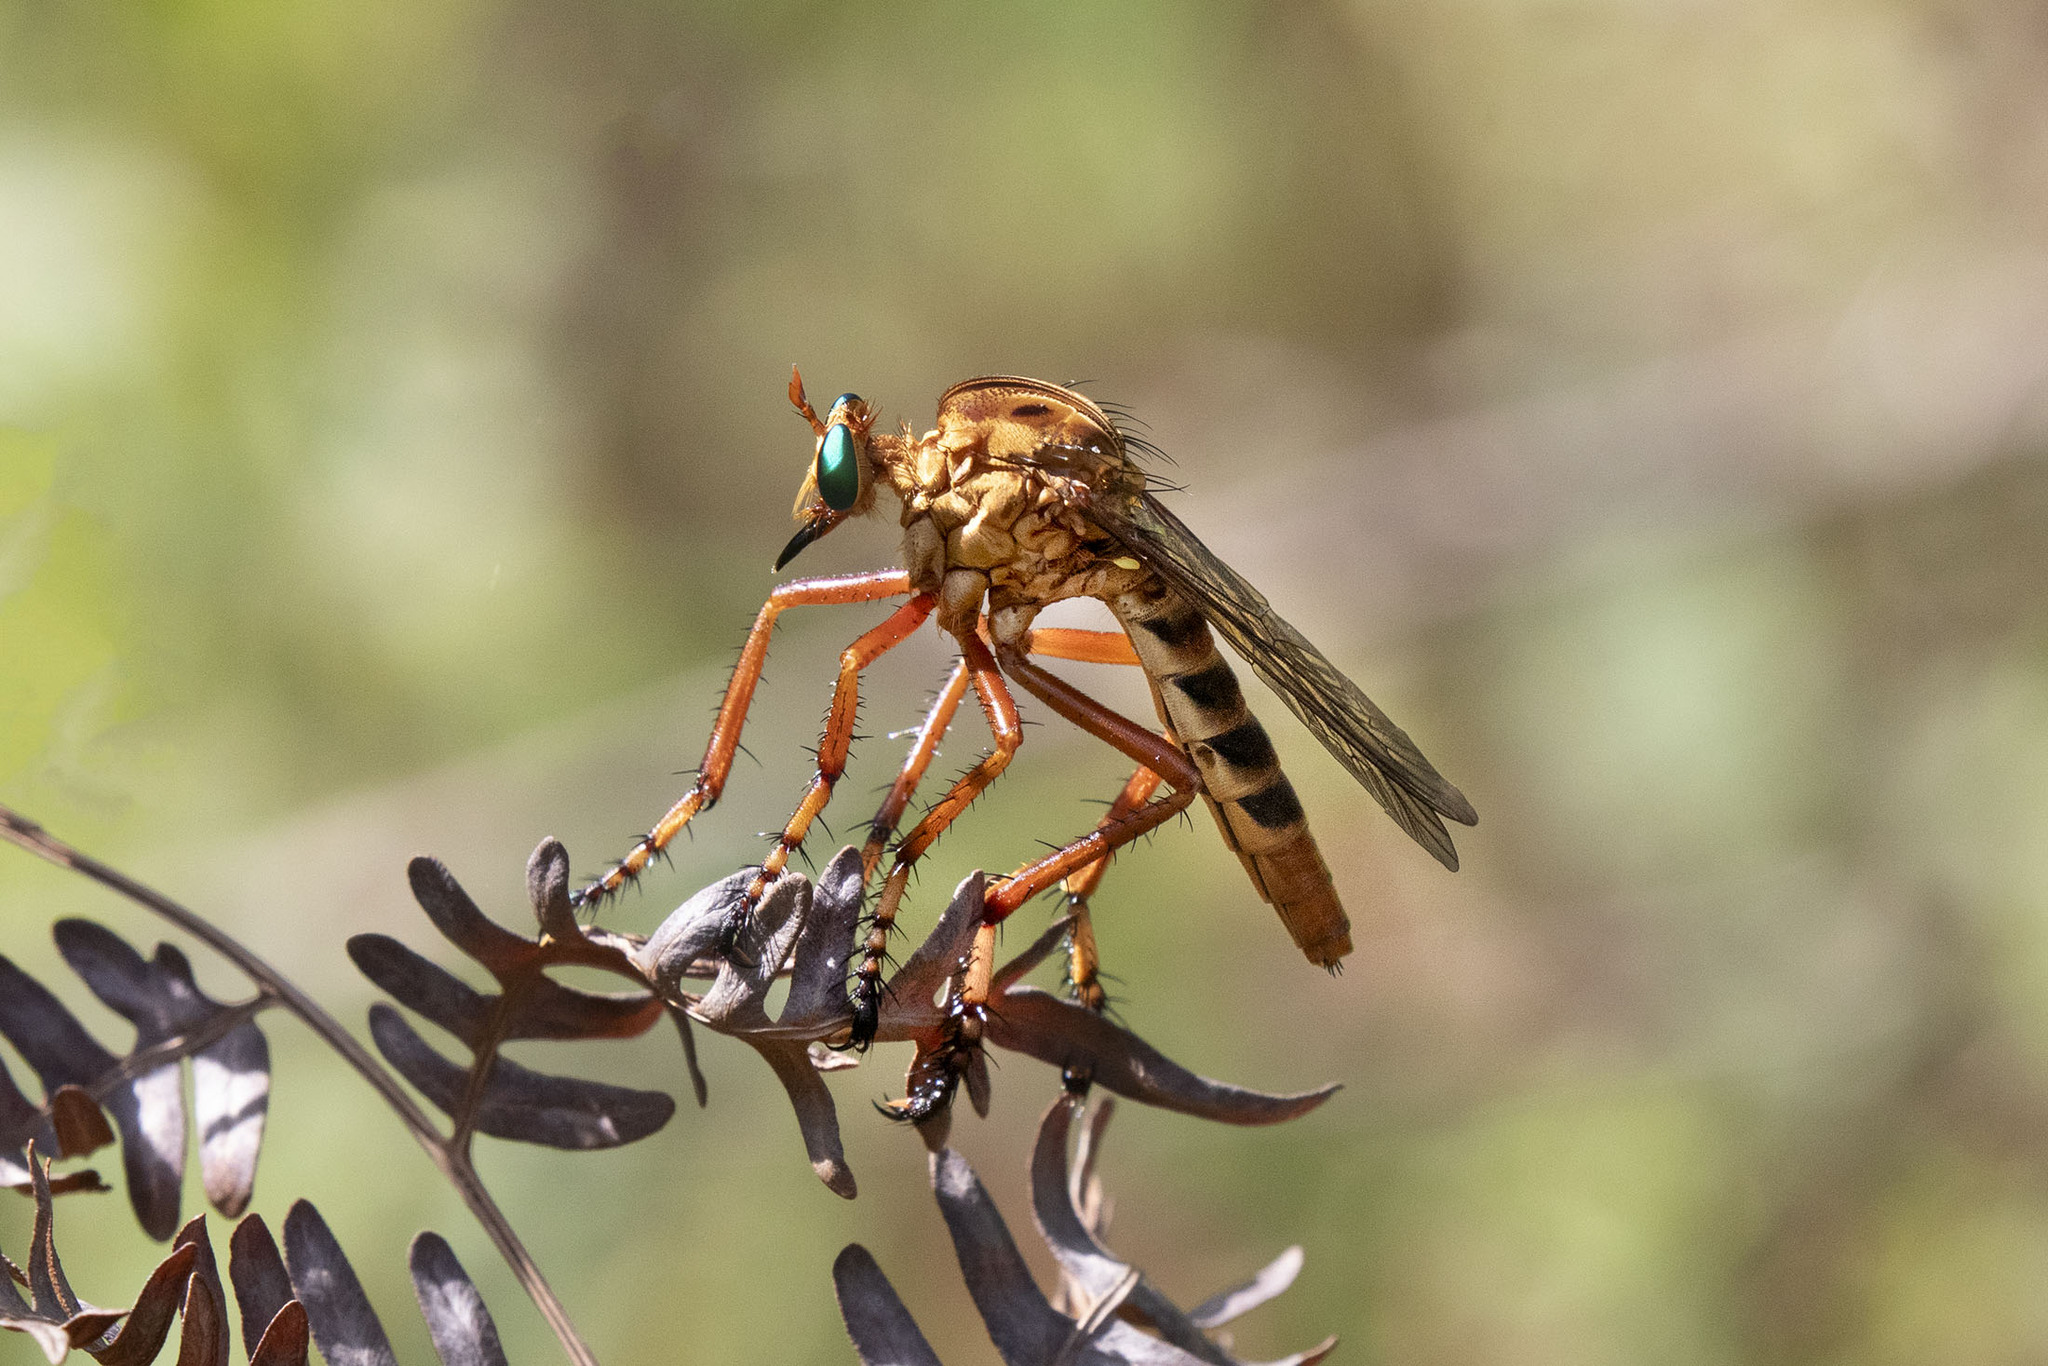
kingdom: Animalia
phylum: Arthropoda
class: Insecta
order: Diptera
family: Asilidae
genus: Diogmites
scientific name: Diogmites crudelis
